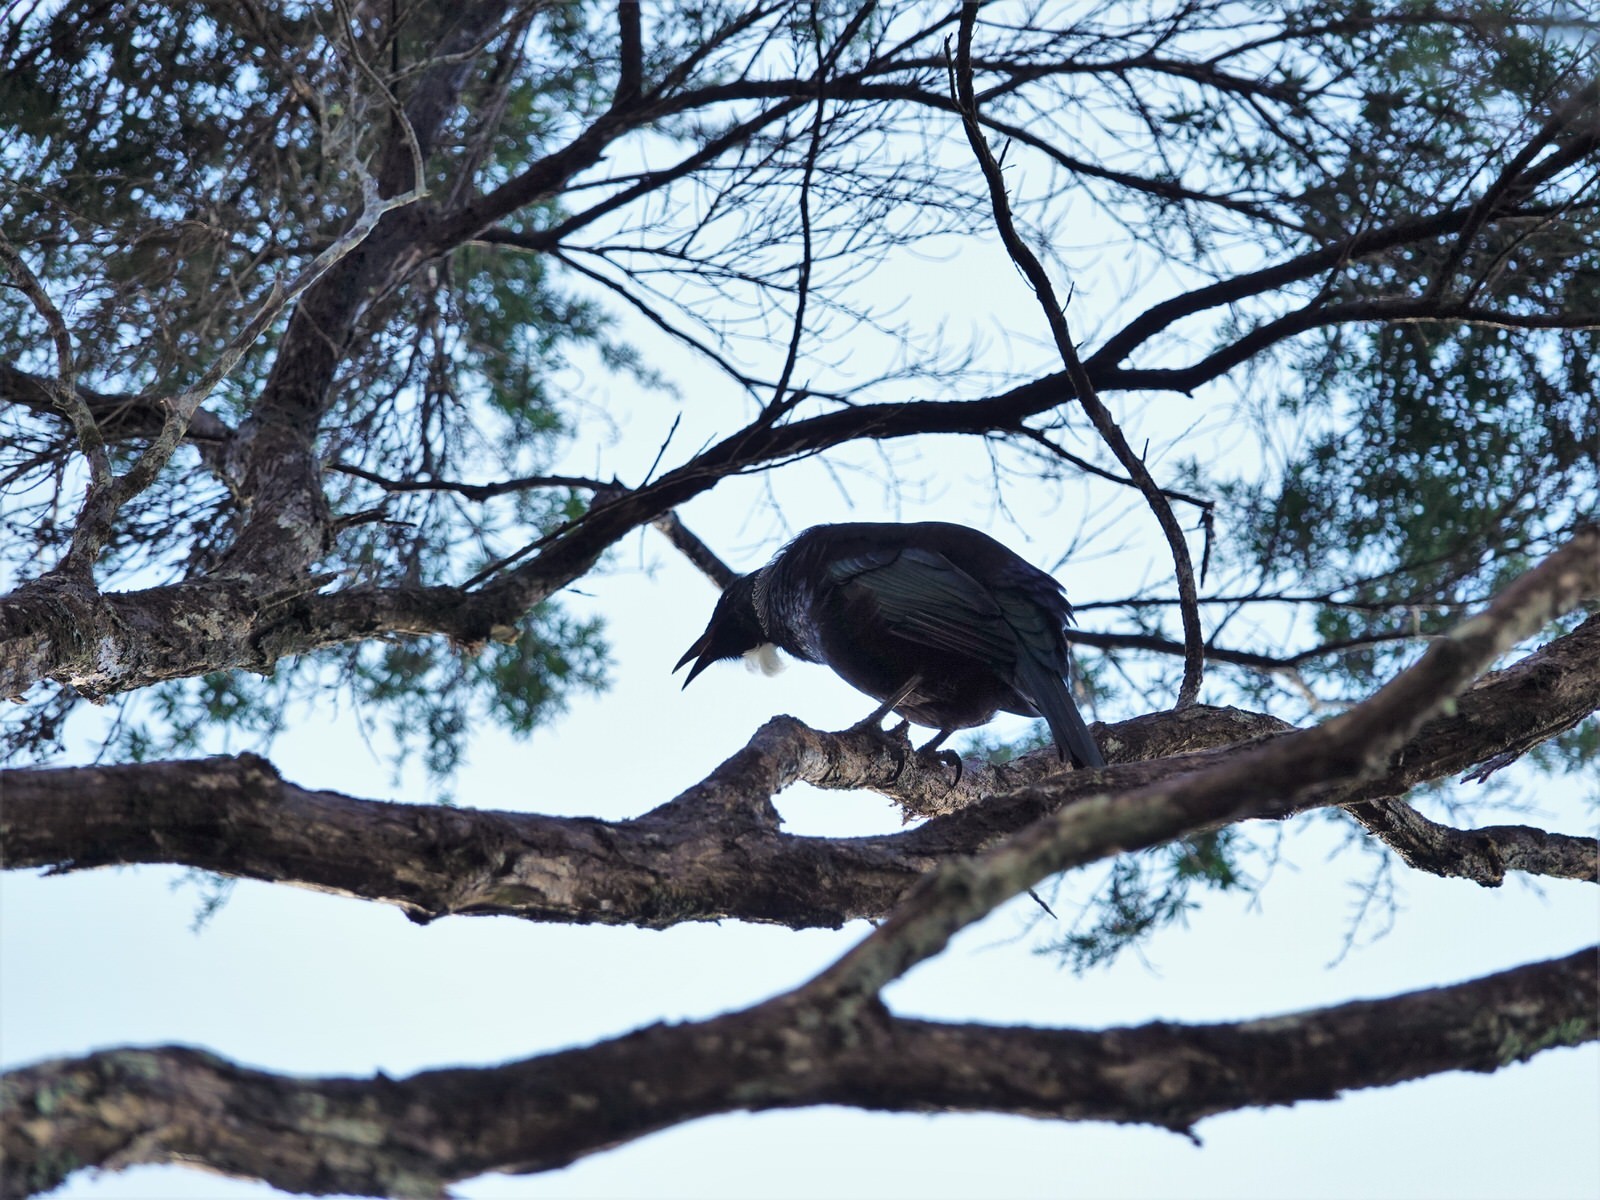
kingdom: Animalia
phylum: Chordata
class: Aves
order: Passeriformes
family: Meliphagidae
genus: Prosthemadera
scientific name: Prosthemadera novaeseelandiae
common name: Tui
